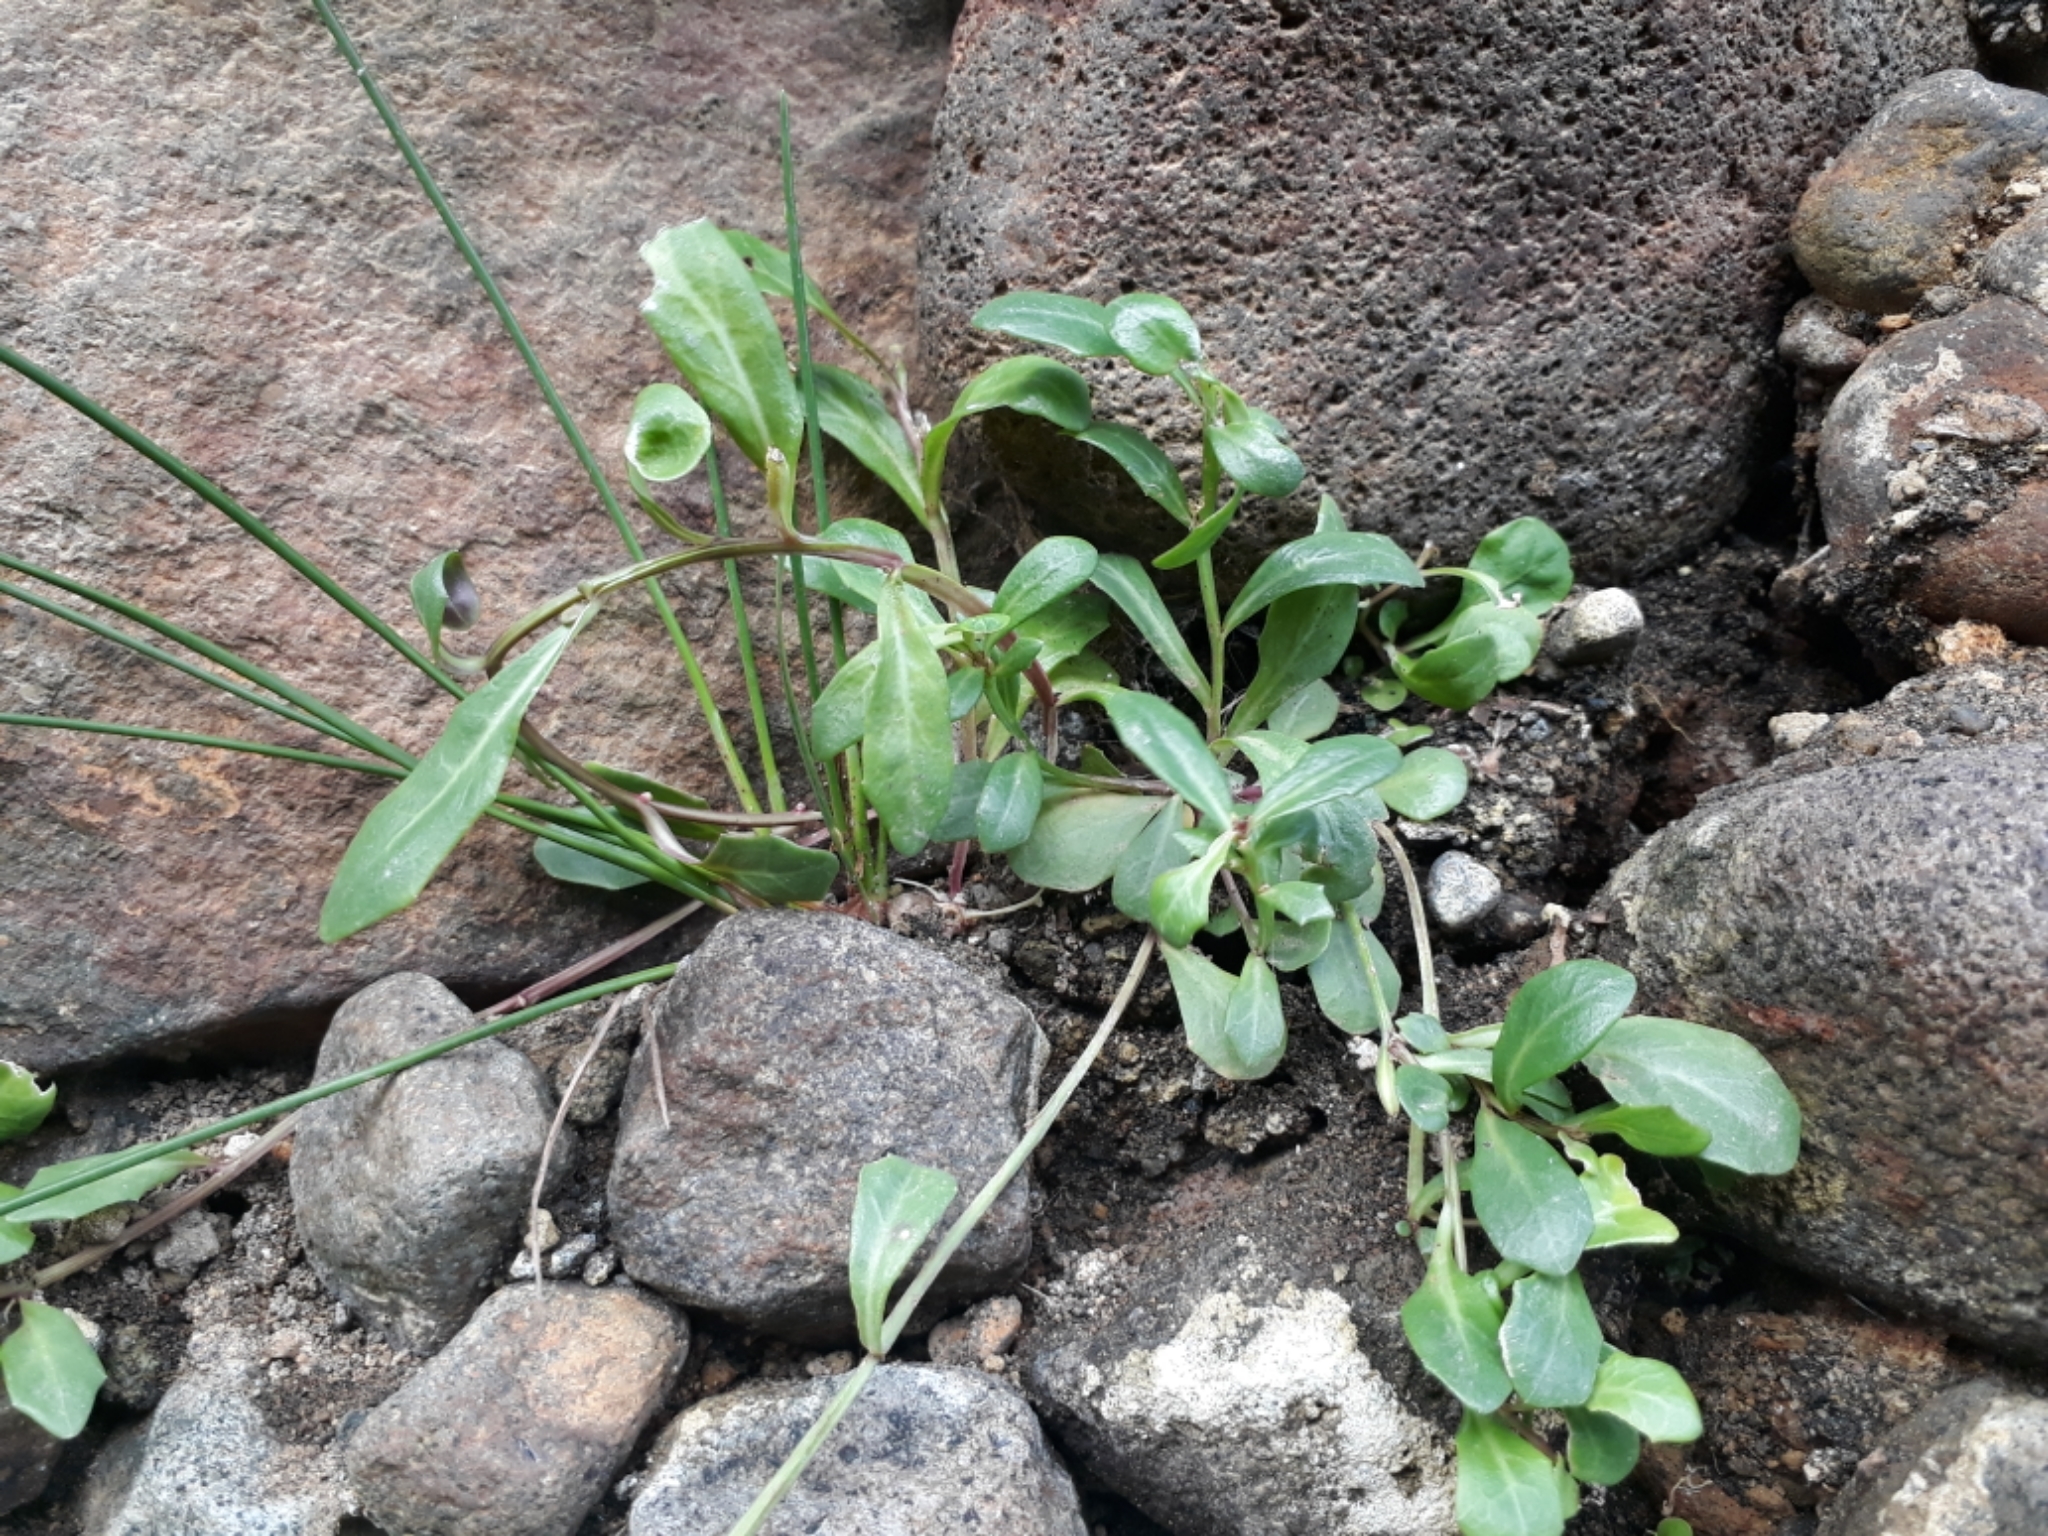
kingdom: Plantae
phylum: Tracheophyta
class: Magnoliopsida
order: Asterales
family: Campanulaceae
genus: Lobelia
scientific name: Lobelia anceps
